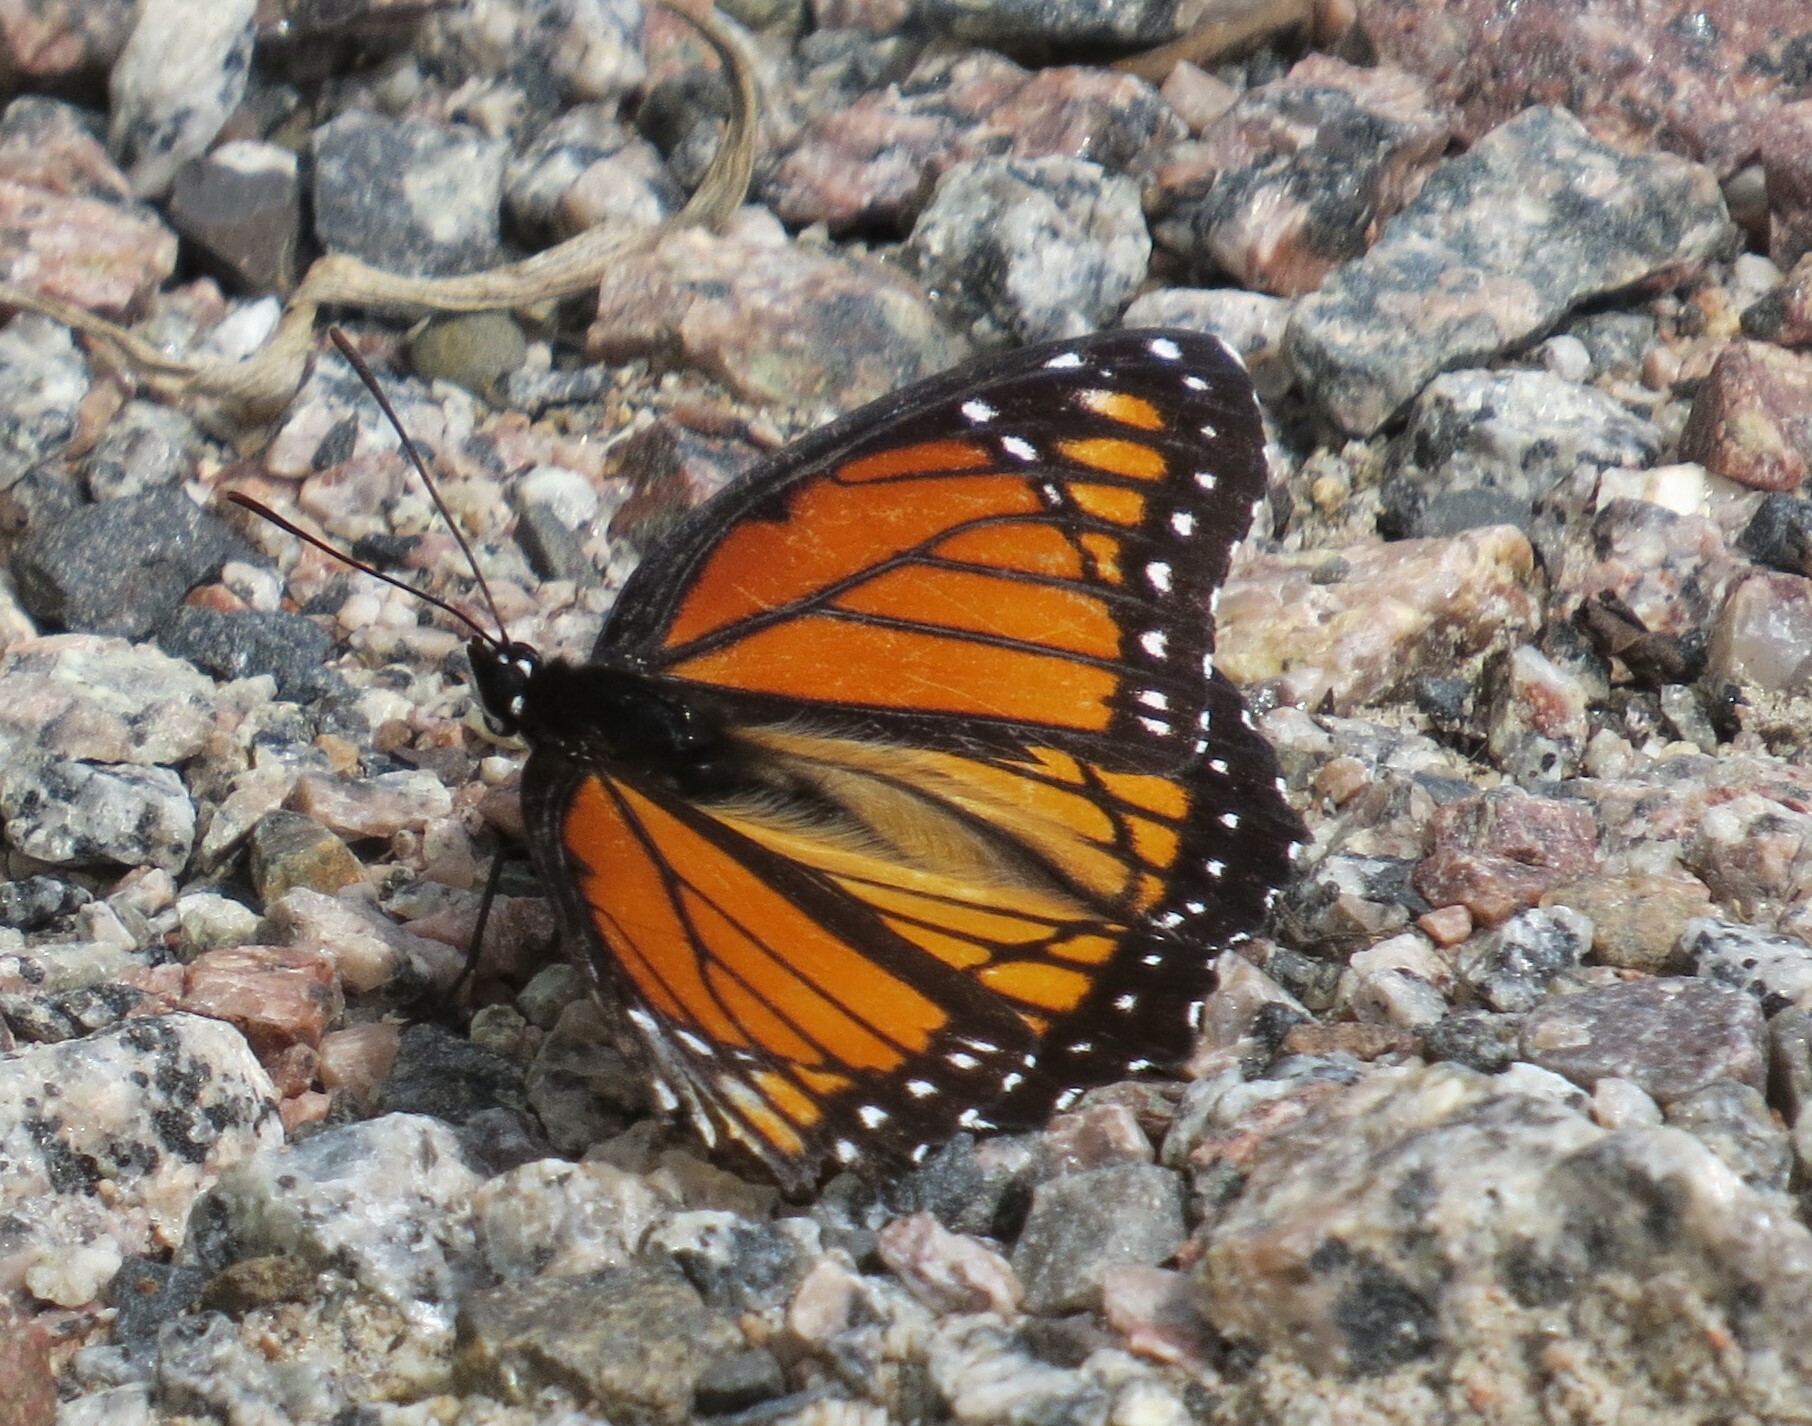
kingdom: Animalia
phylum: Arthropoda
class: Insecta
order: Lepidoptera
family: Nymphalidae
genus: Limenitis
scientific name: Limenitis archippus
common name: Viceroy
